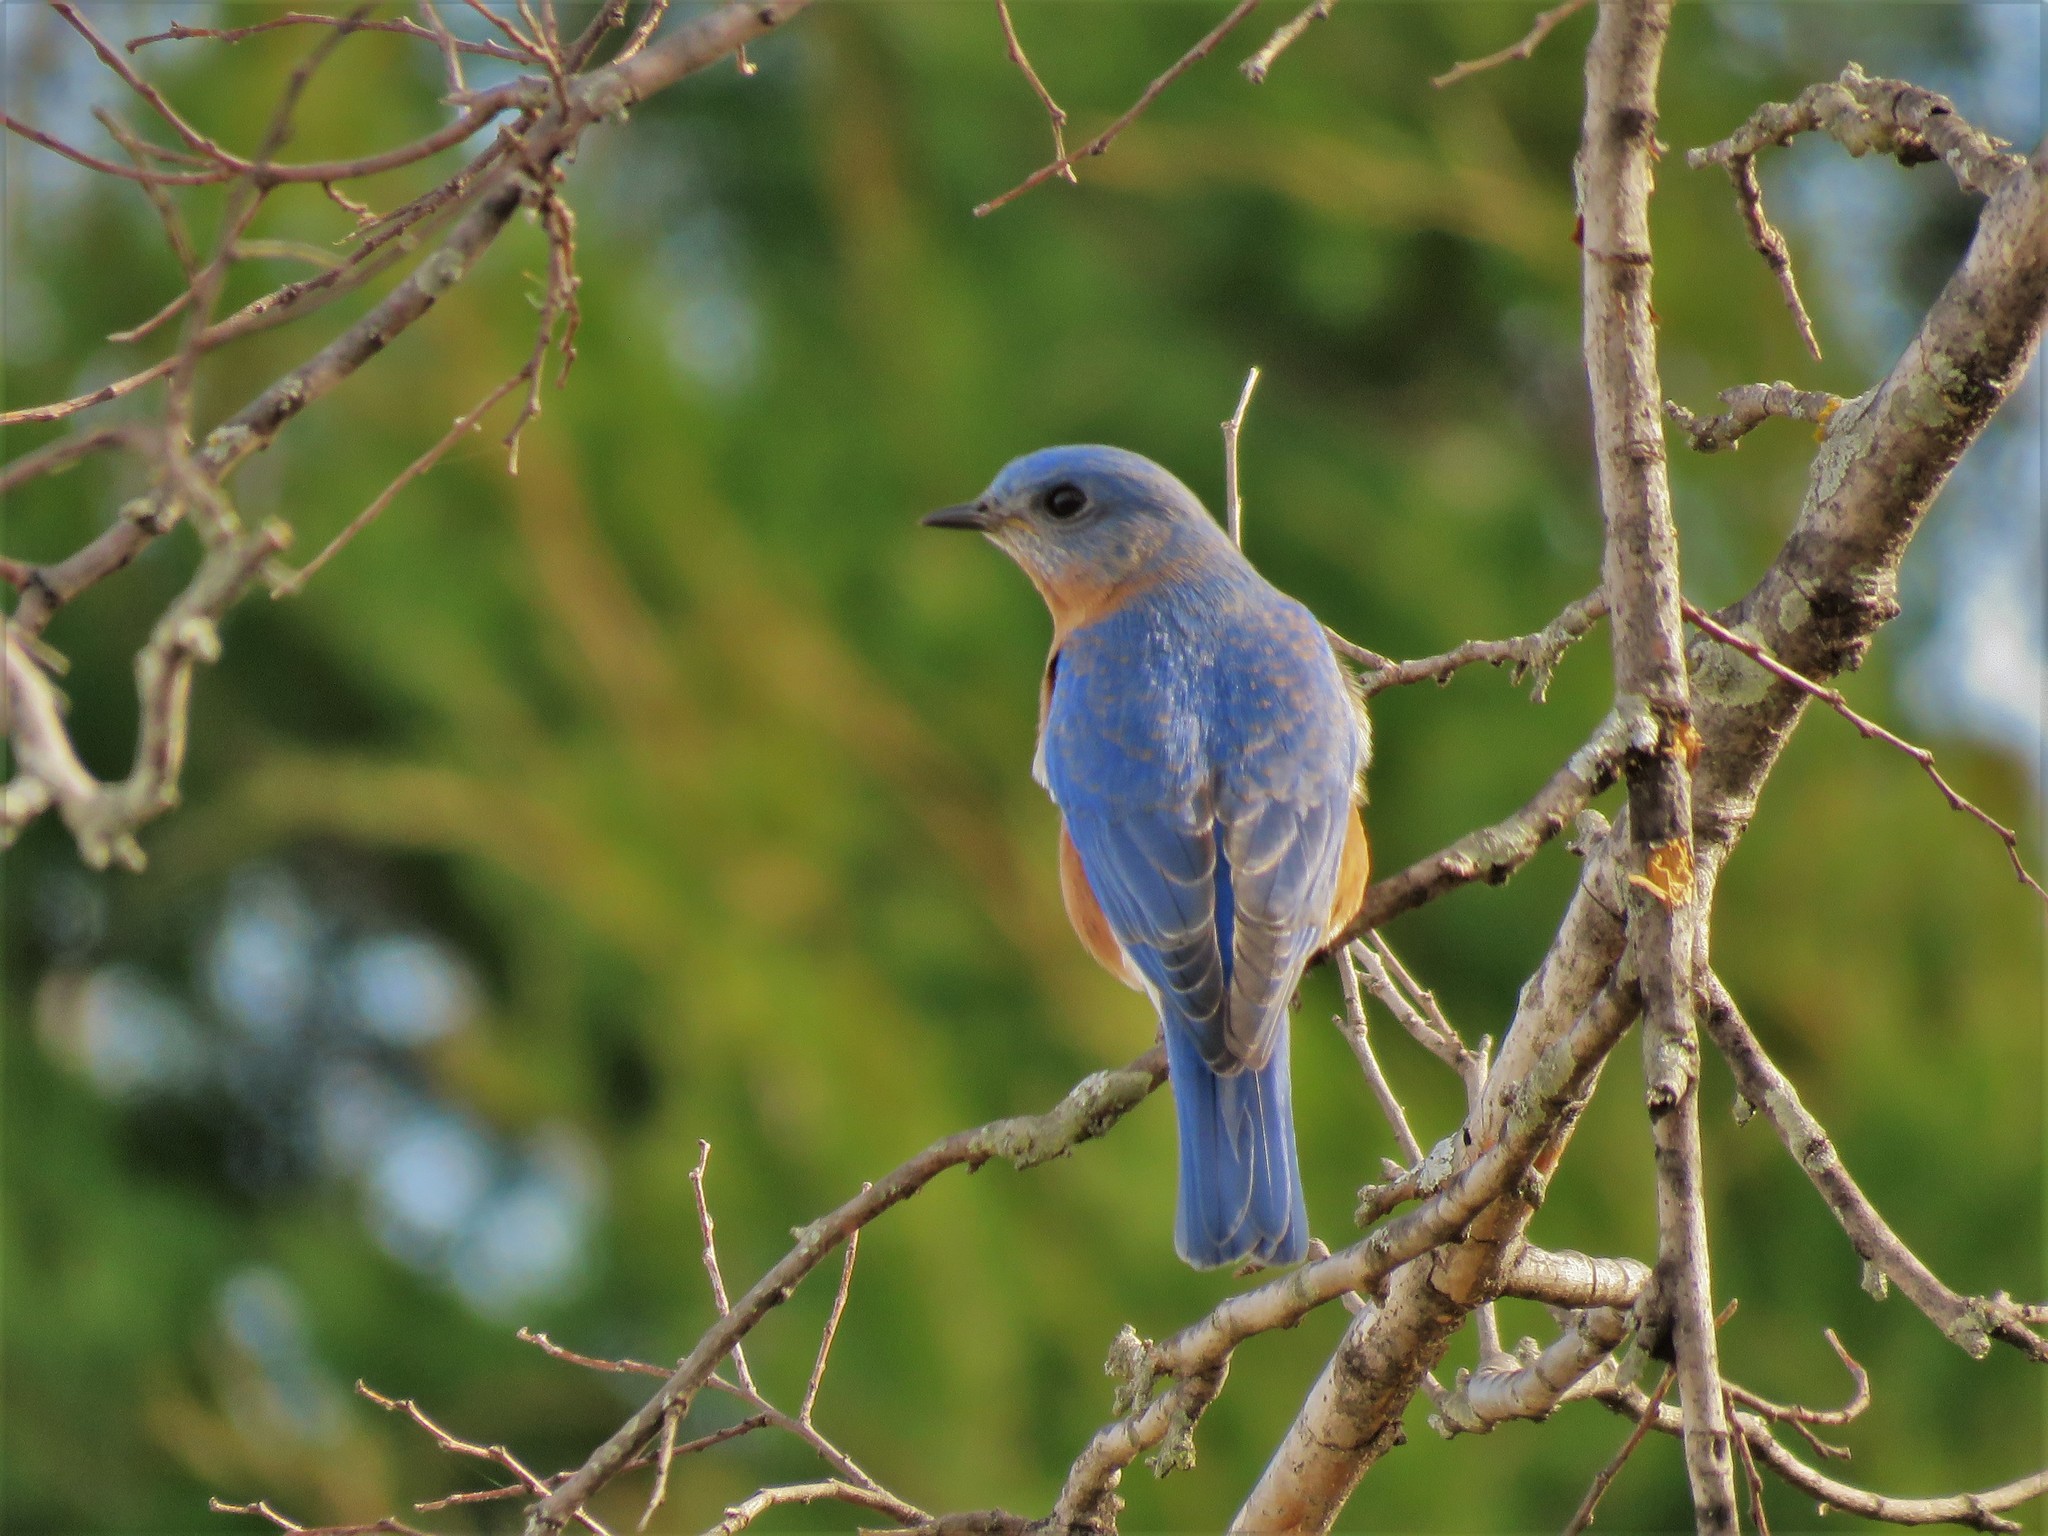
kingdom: Animalia
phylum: Chordata
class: Aves
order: Passeriformes
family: Turdidae
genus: Sialia
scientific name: Sialia sialis
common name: Eastern bluebird
